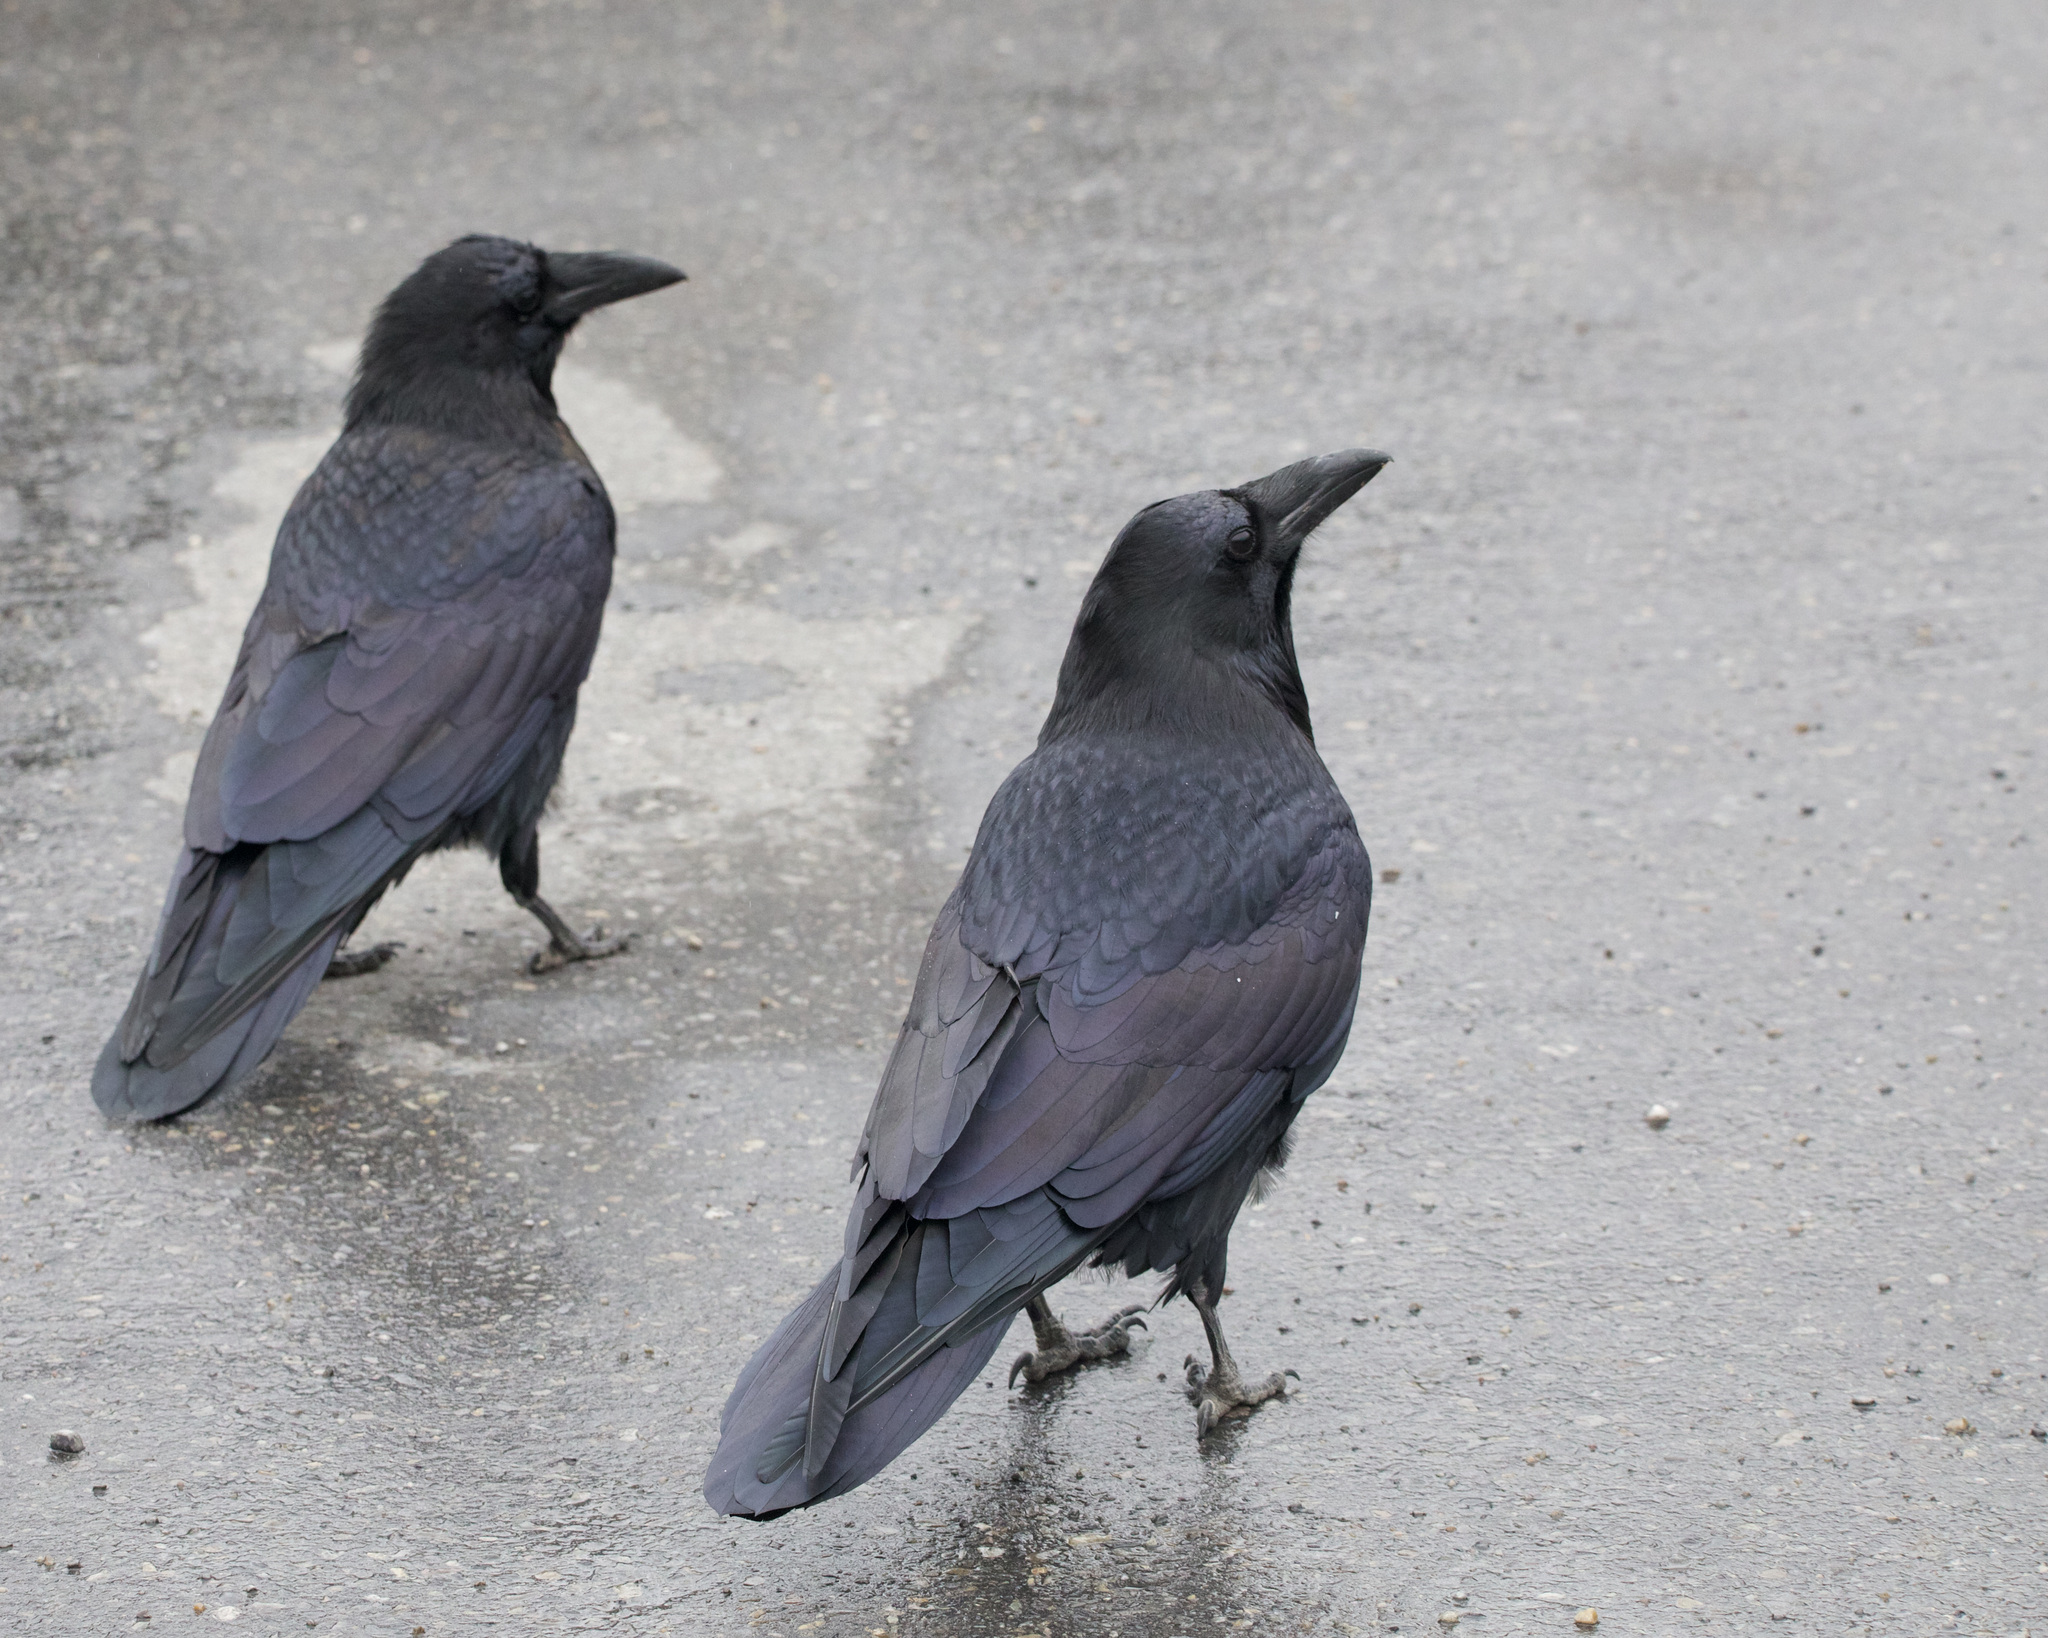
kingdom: Animalia
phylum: Chordata
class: Aves
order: Passeriformes
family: Corvidae
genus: Corvus
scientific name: Corvus corax
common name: Common raven
